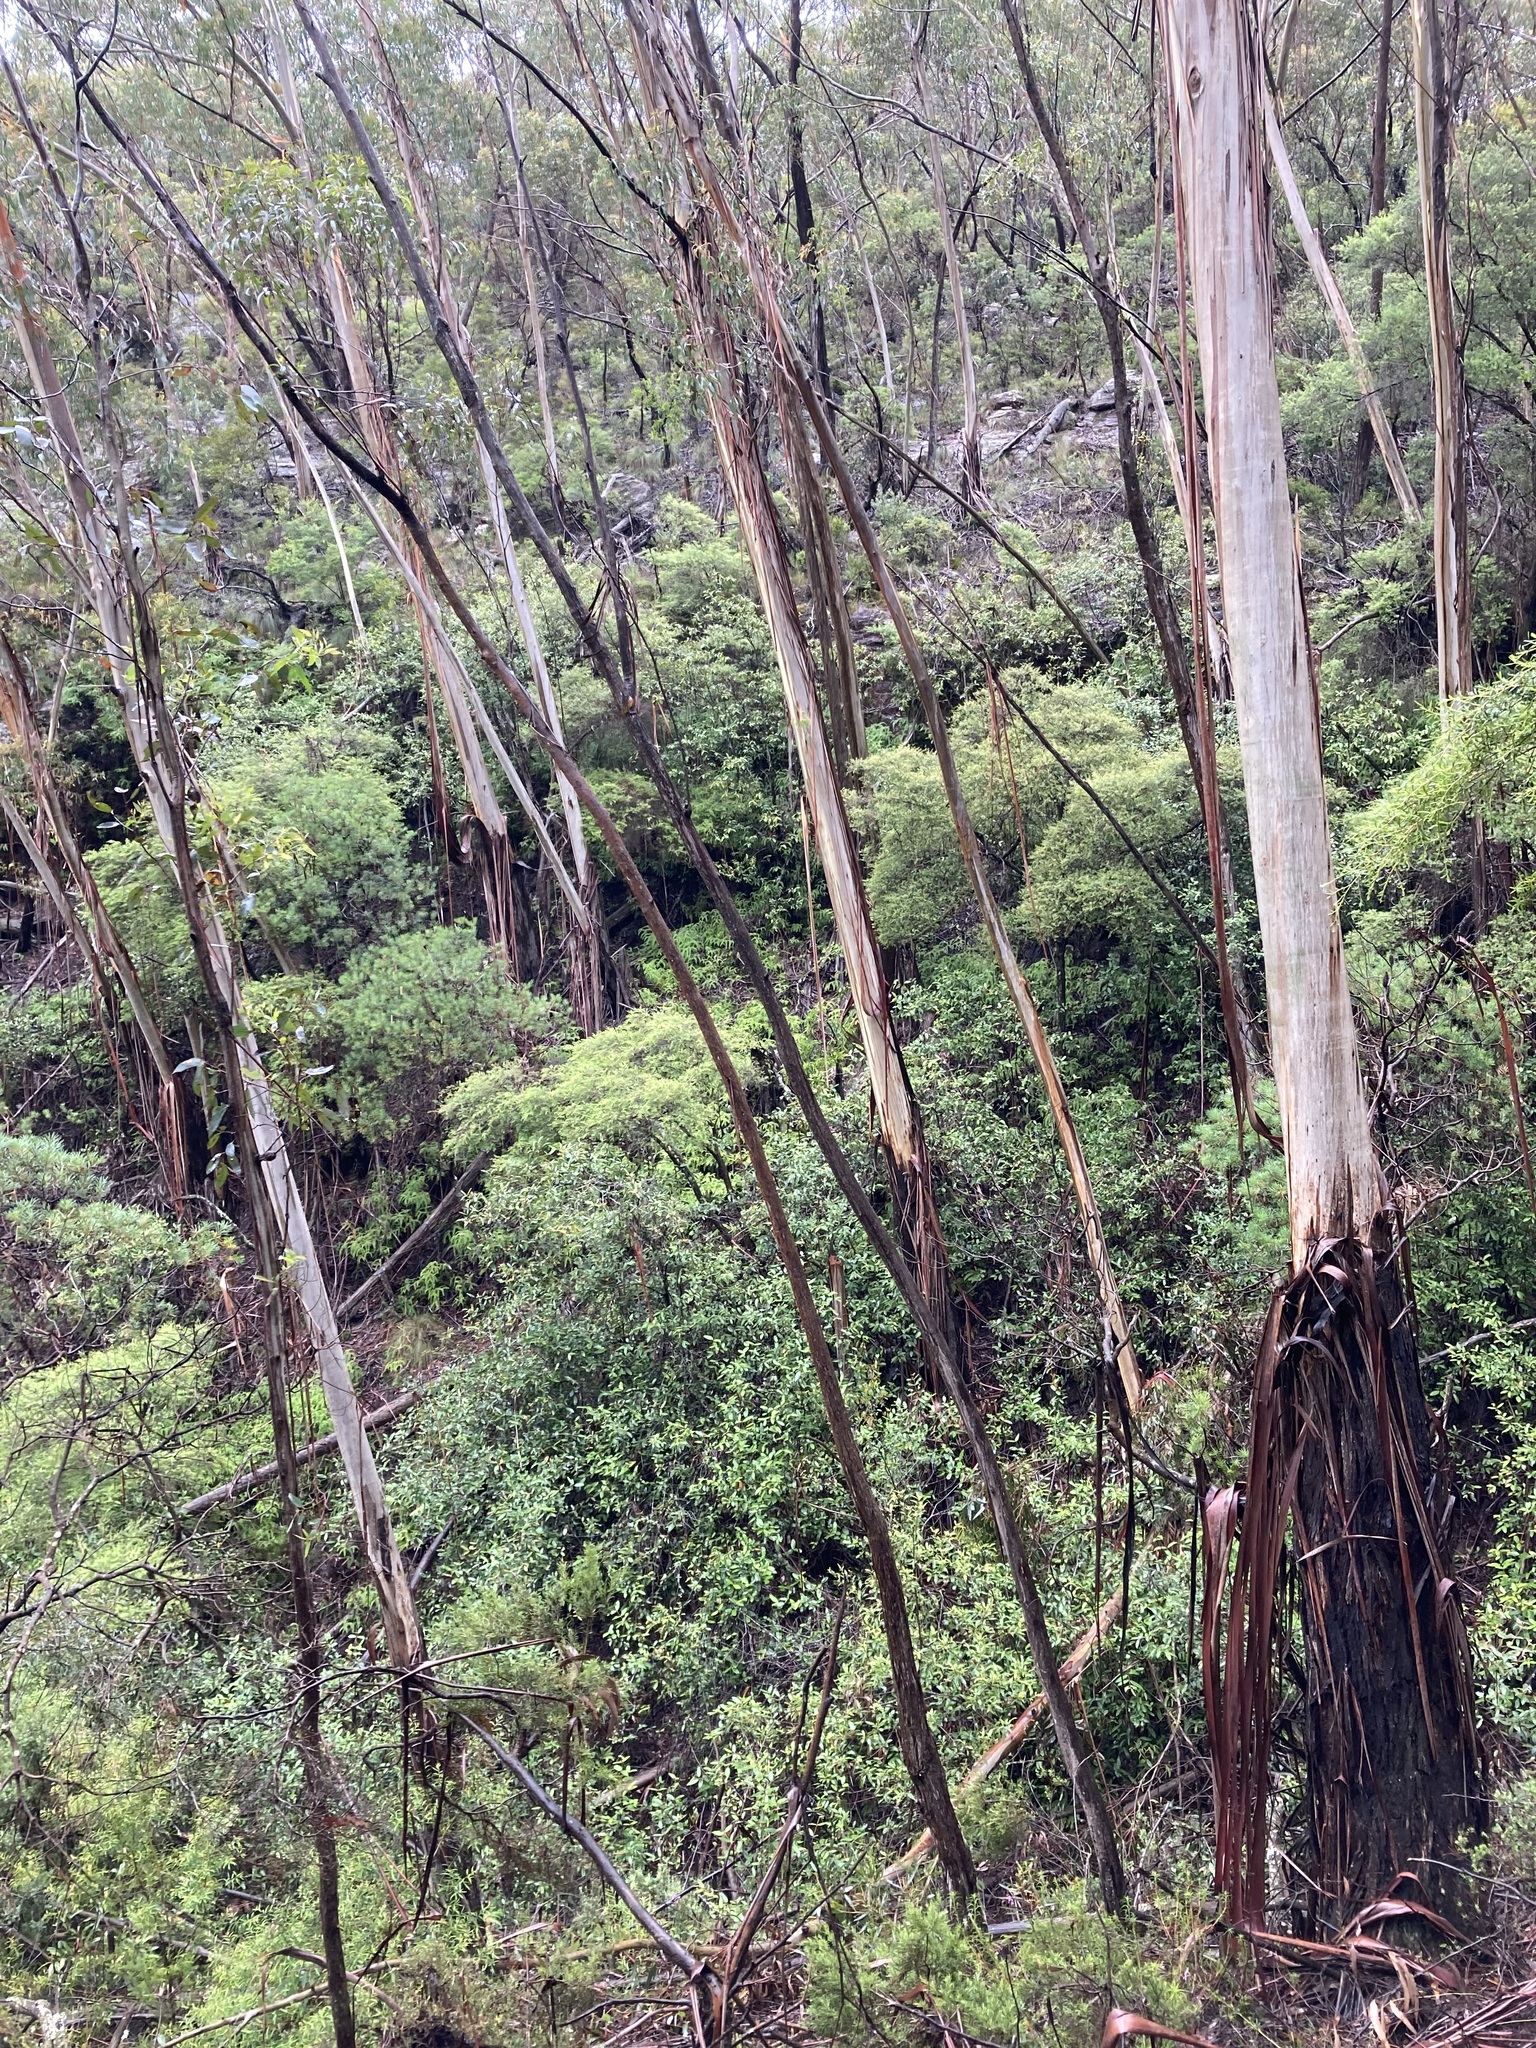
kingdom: Plantae
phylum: Tracheophyta
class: Magnoliopsida
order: Myrtales
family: Myrtaceae
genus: Eucalyptus
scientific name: Eucalyptus oreades
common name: White-ash
